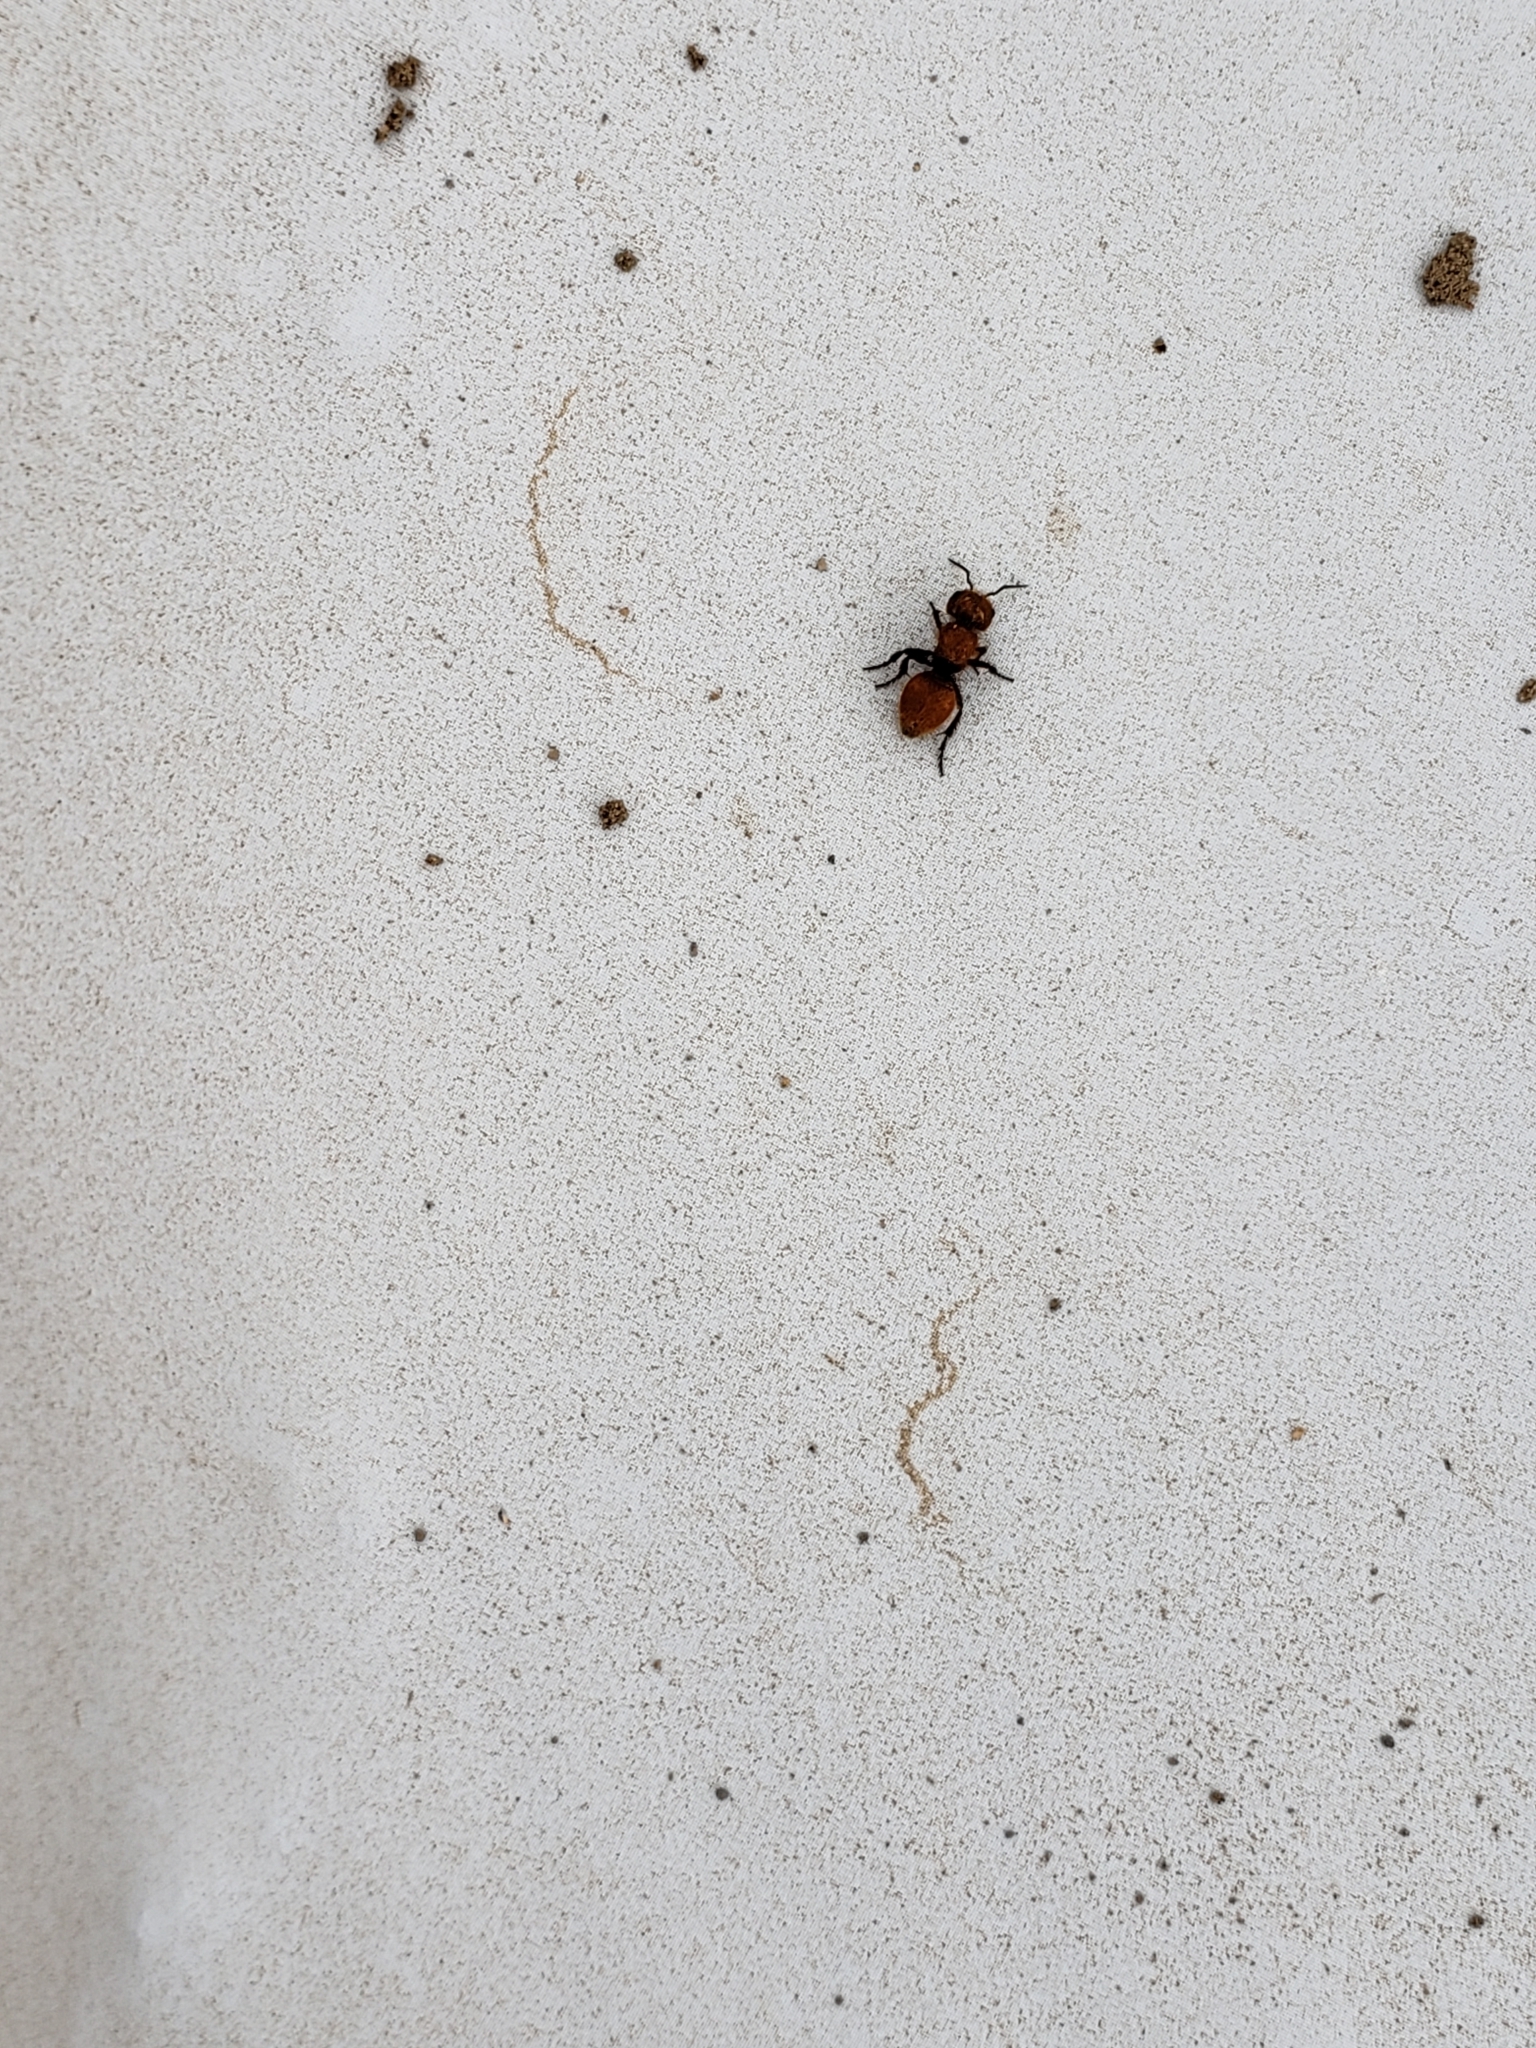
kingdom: Animalia
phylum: Arthropoda
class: Insecta
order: Hymenoptera
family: Mutillidae
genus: Pseudomethoca
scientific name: Pseudomethoca
